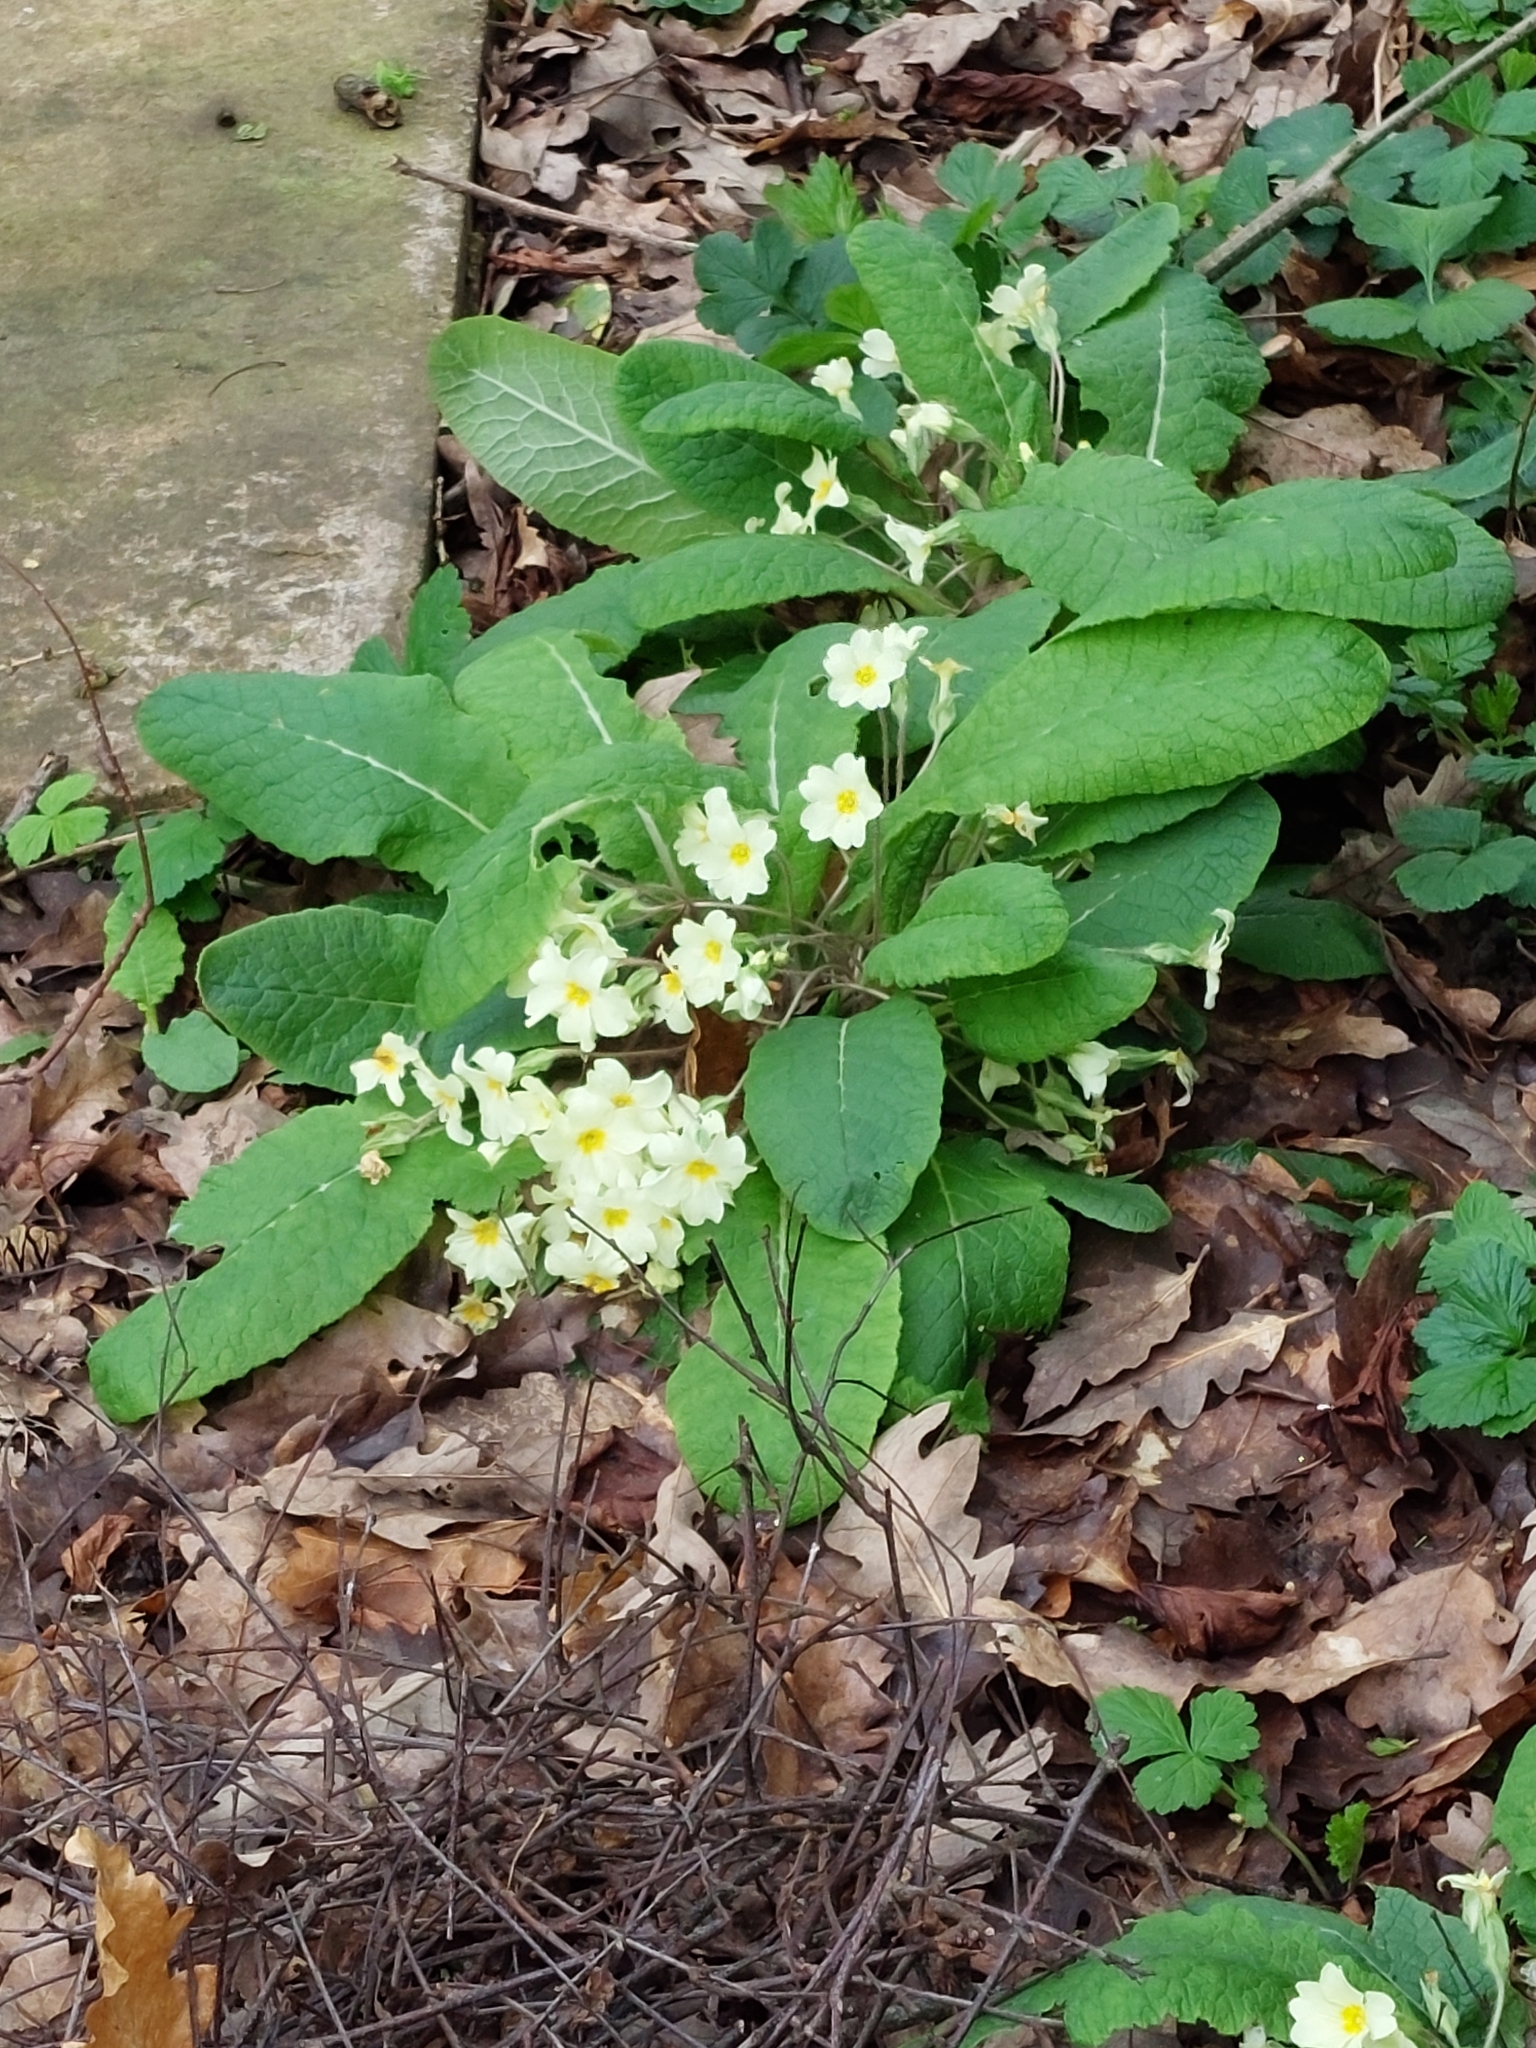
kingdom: Plantae
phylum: Tracheophyta
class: Magnoliopsida
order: Ericales
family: Primulaceae
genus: Primula
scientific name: Primula vulgaris
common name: Primrose
